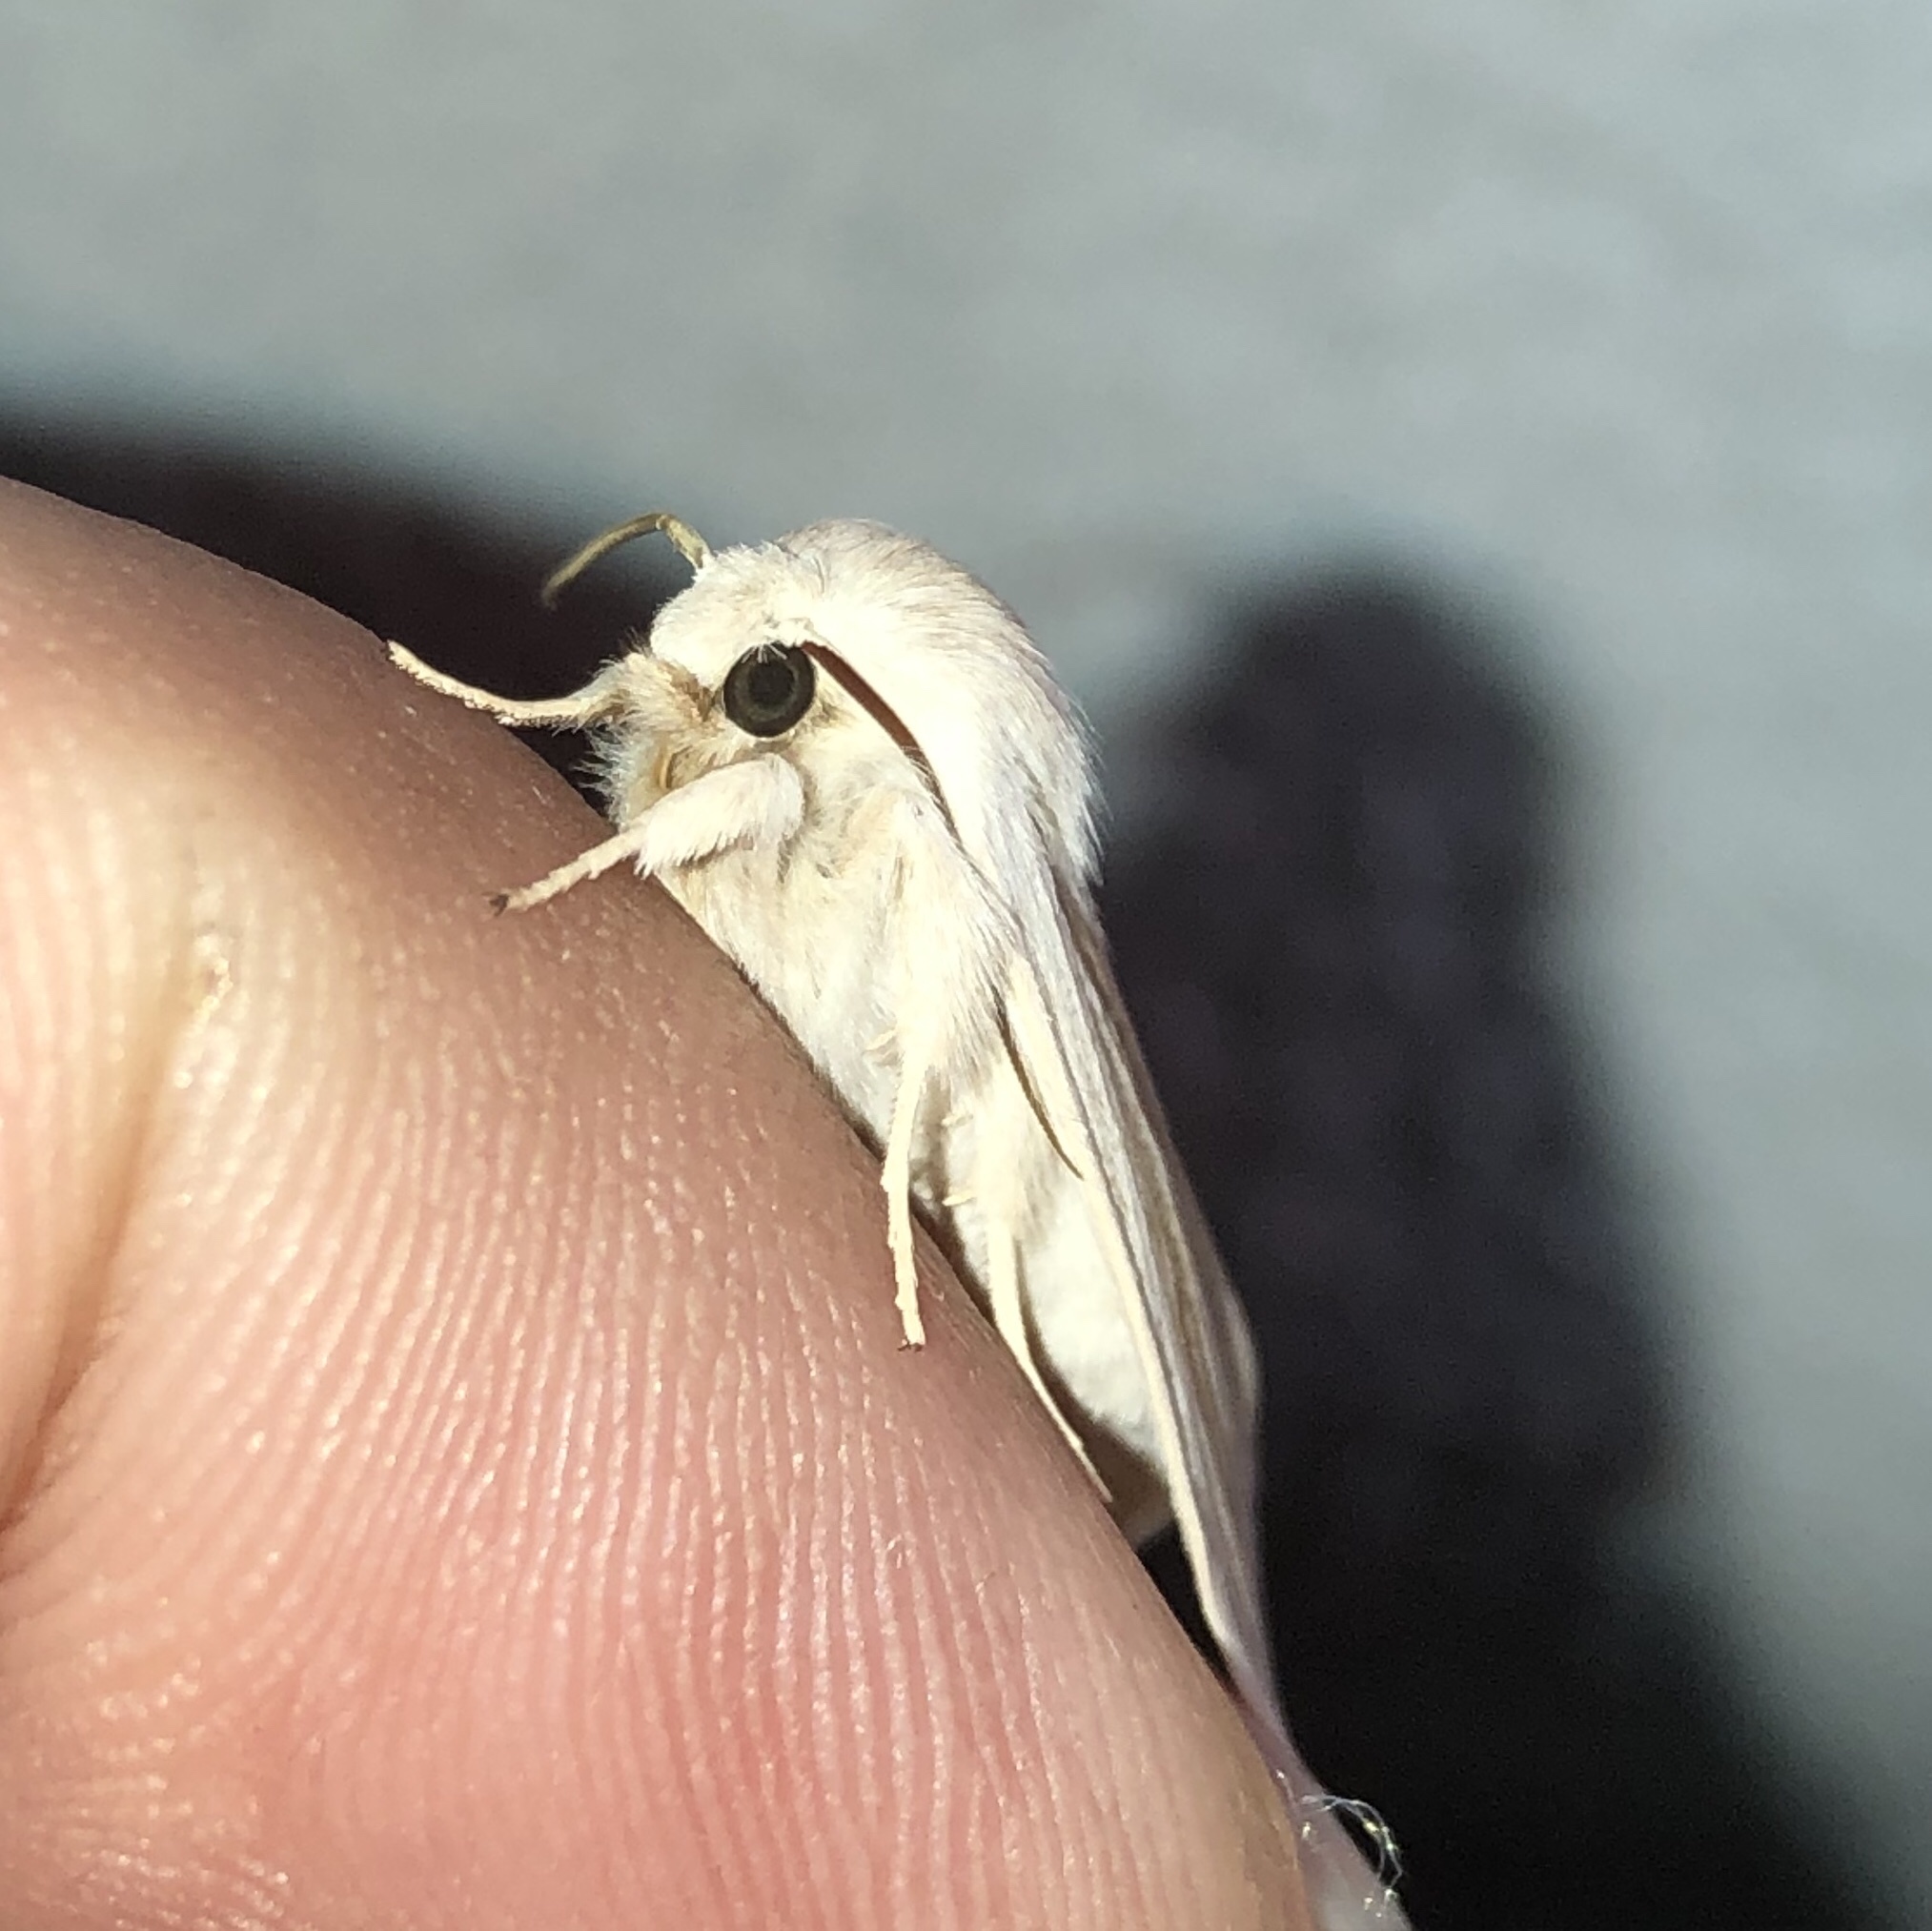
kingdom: Animalia
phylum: Arthropoda
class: Insecta
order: Lepidoptera
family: Noctuidae
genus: Acronicta
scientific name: Acronicta insularis
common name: Henry's marsh moth
